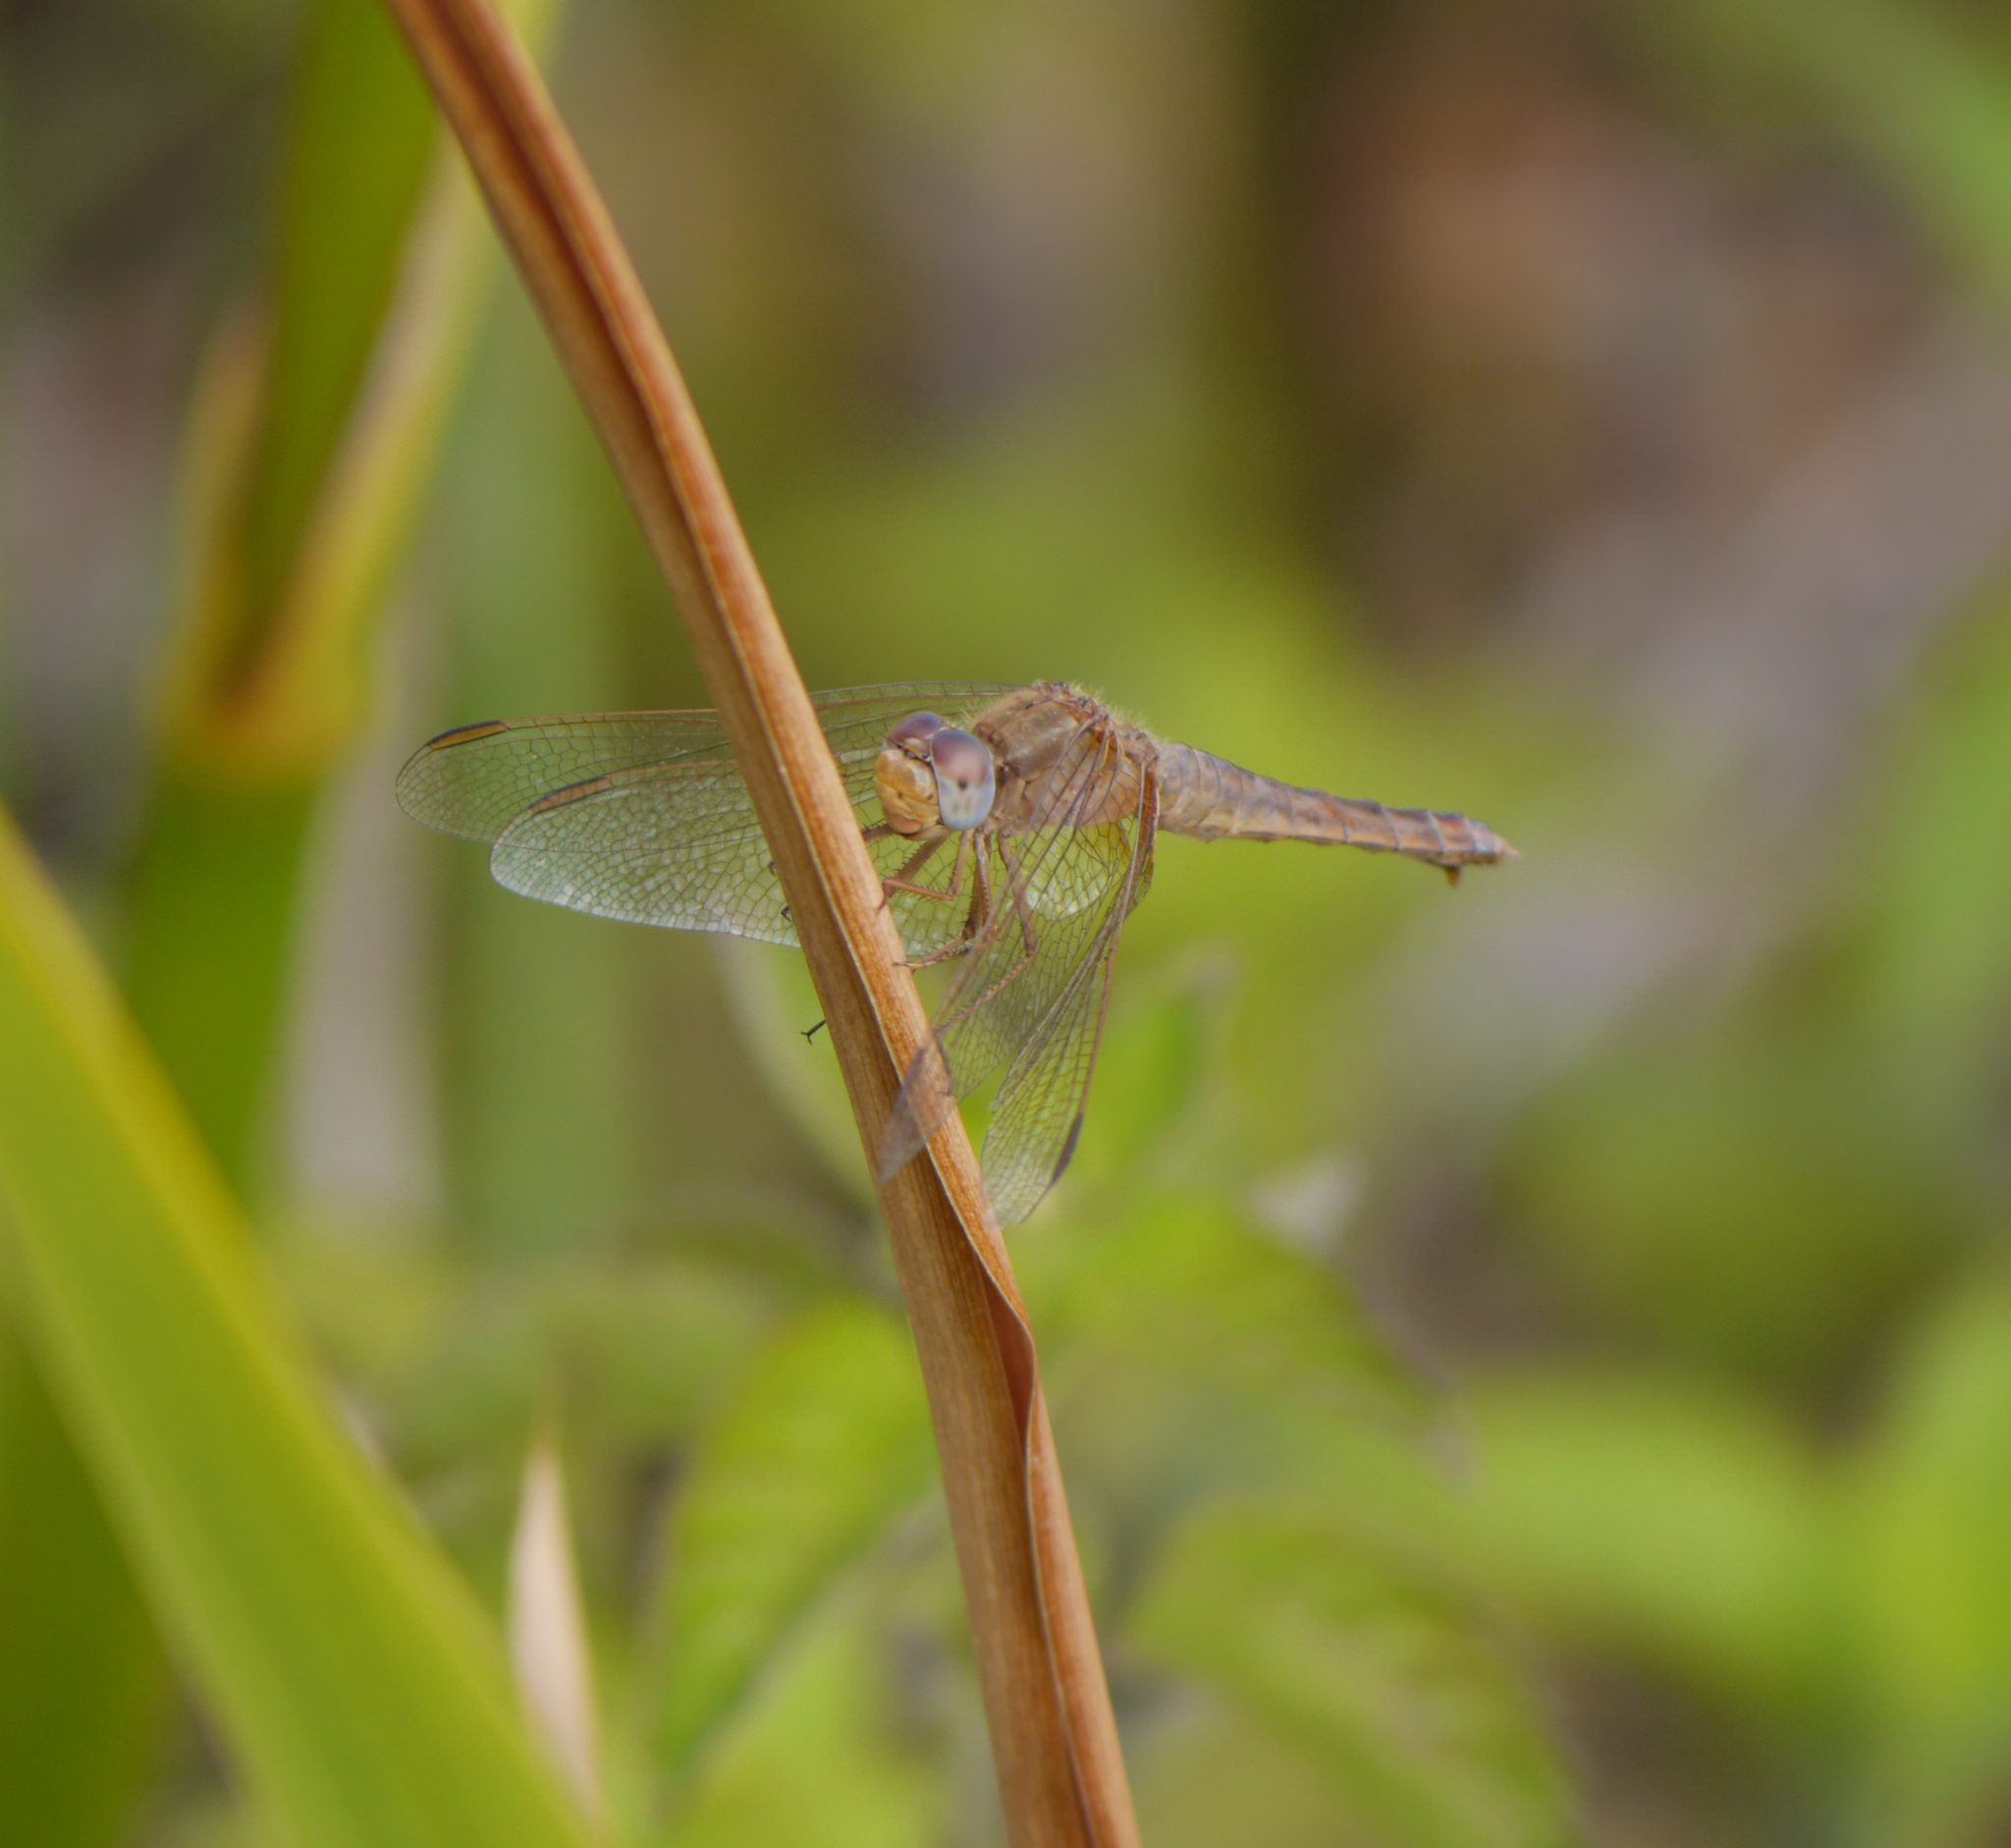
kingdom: Animalia
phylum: Arthropoda
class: Insecta
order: Odonata
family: Libellulidae
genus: Crocothemis
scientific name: Crocothemis erythraea
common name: Scarlet dragonfly
